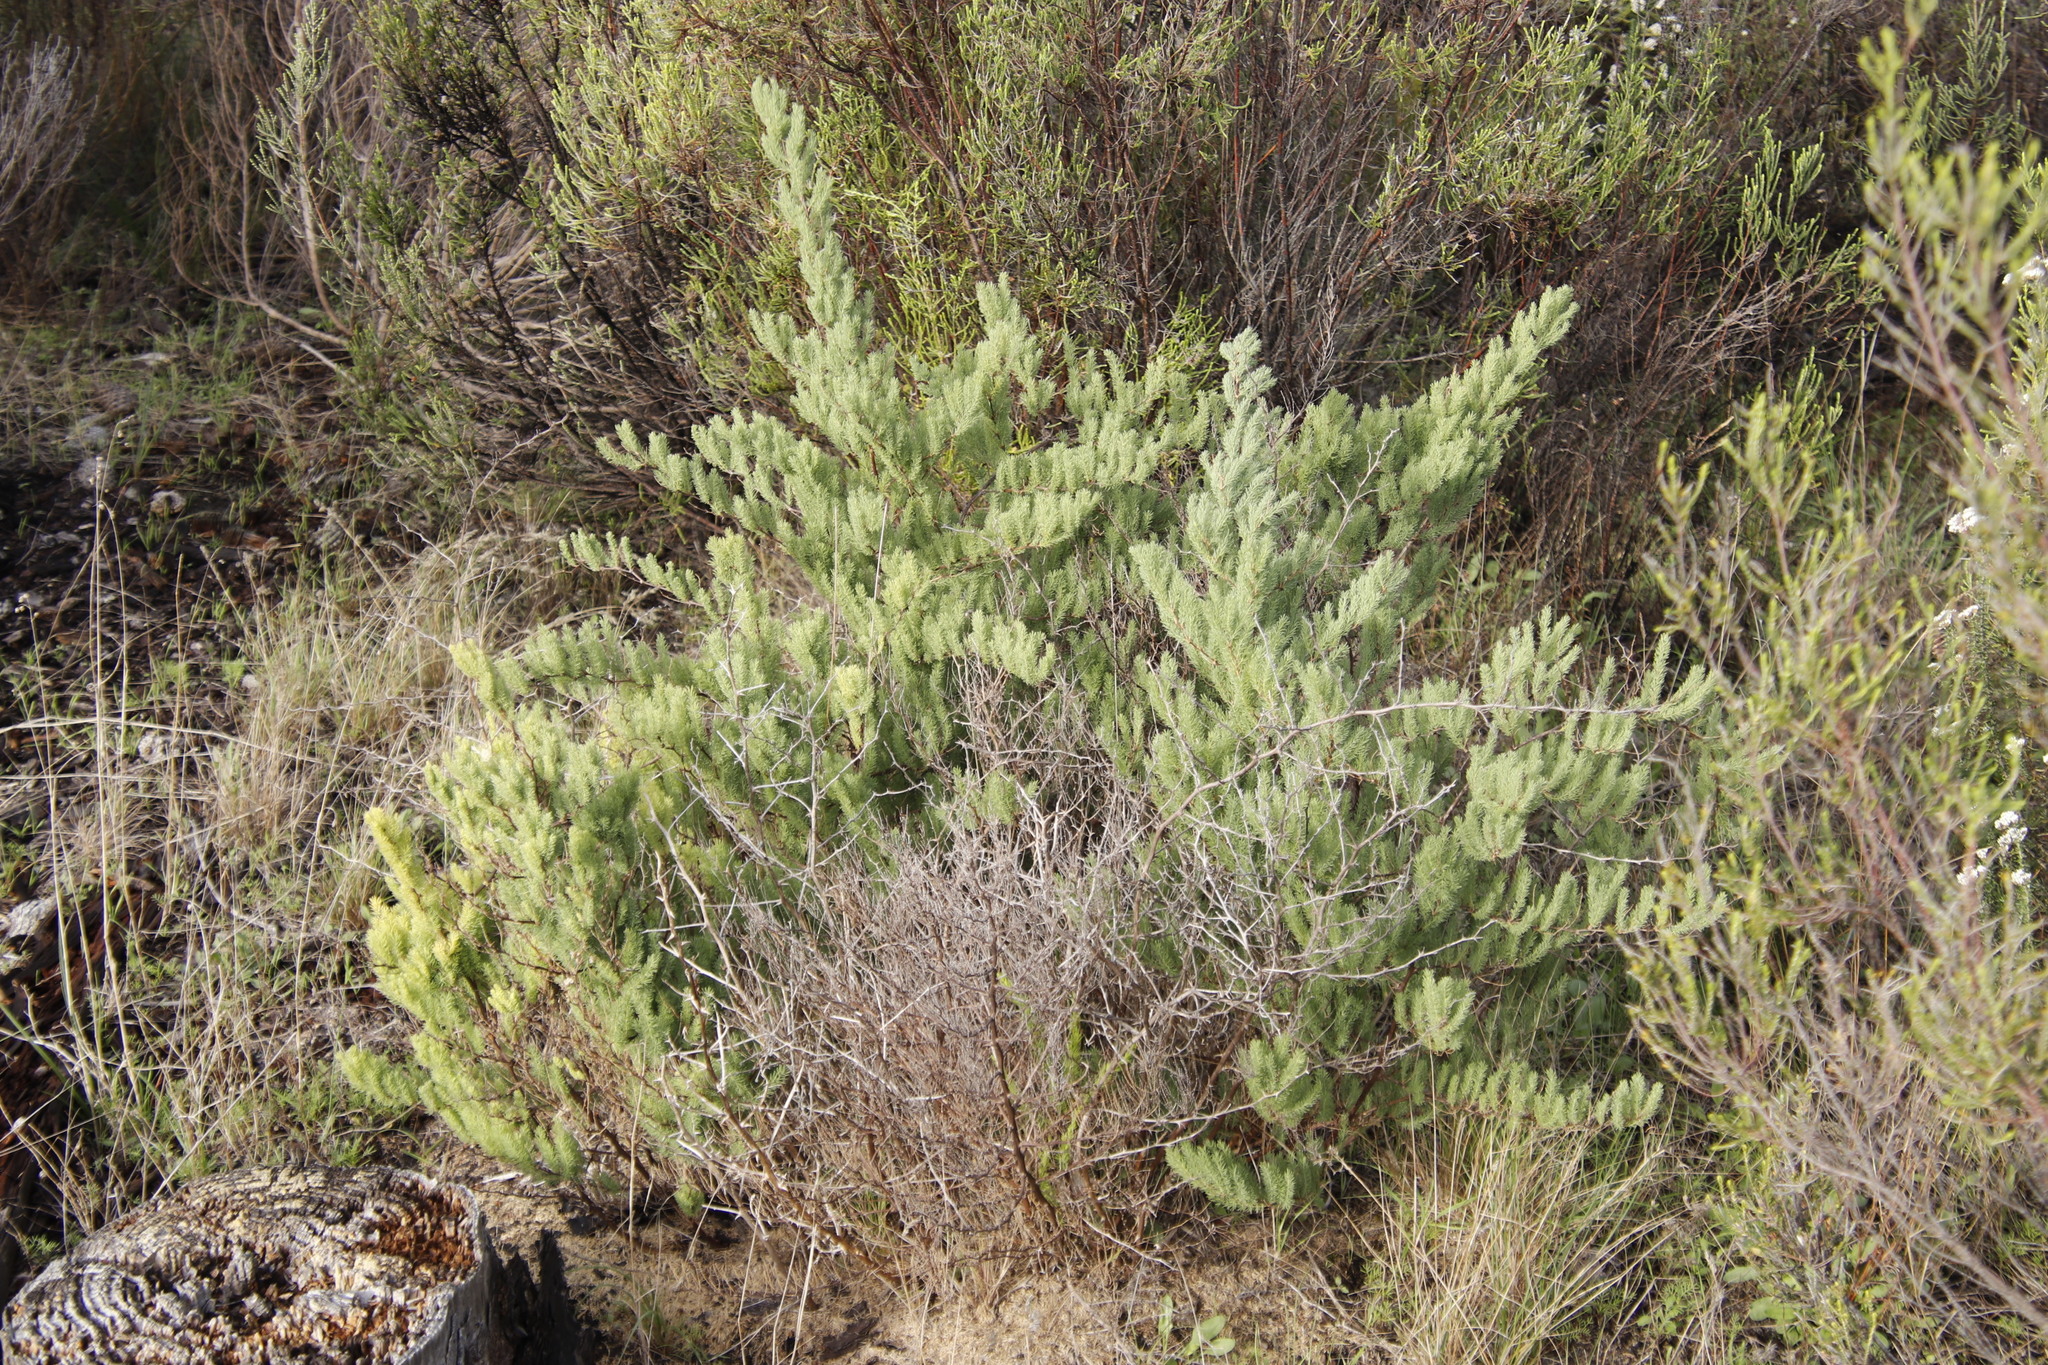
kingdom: Plantae
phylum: Tracheophyta
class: Liliopsida
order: Asparagales
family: Asparagaceae
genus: Asparagus
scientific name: Asparagus rubicundus
